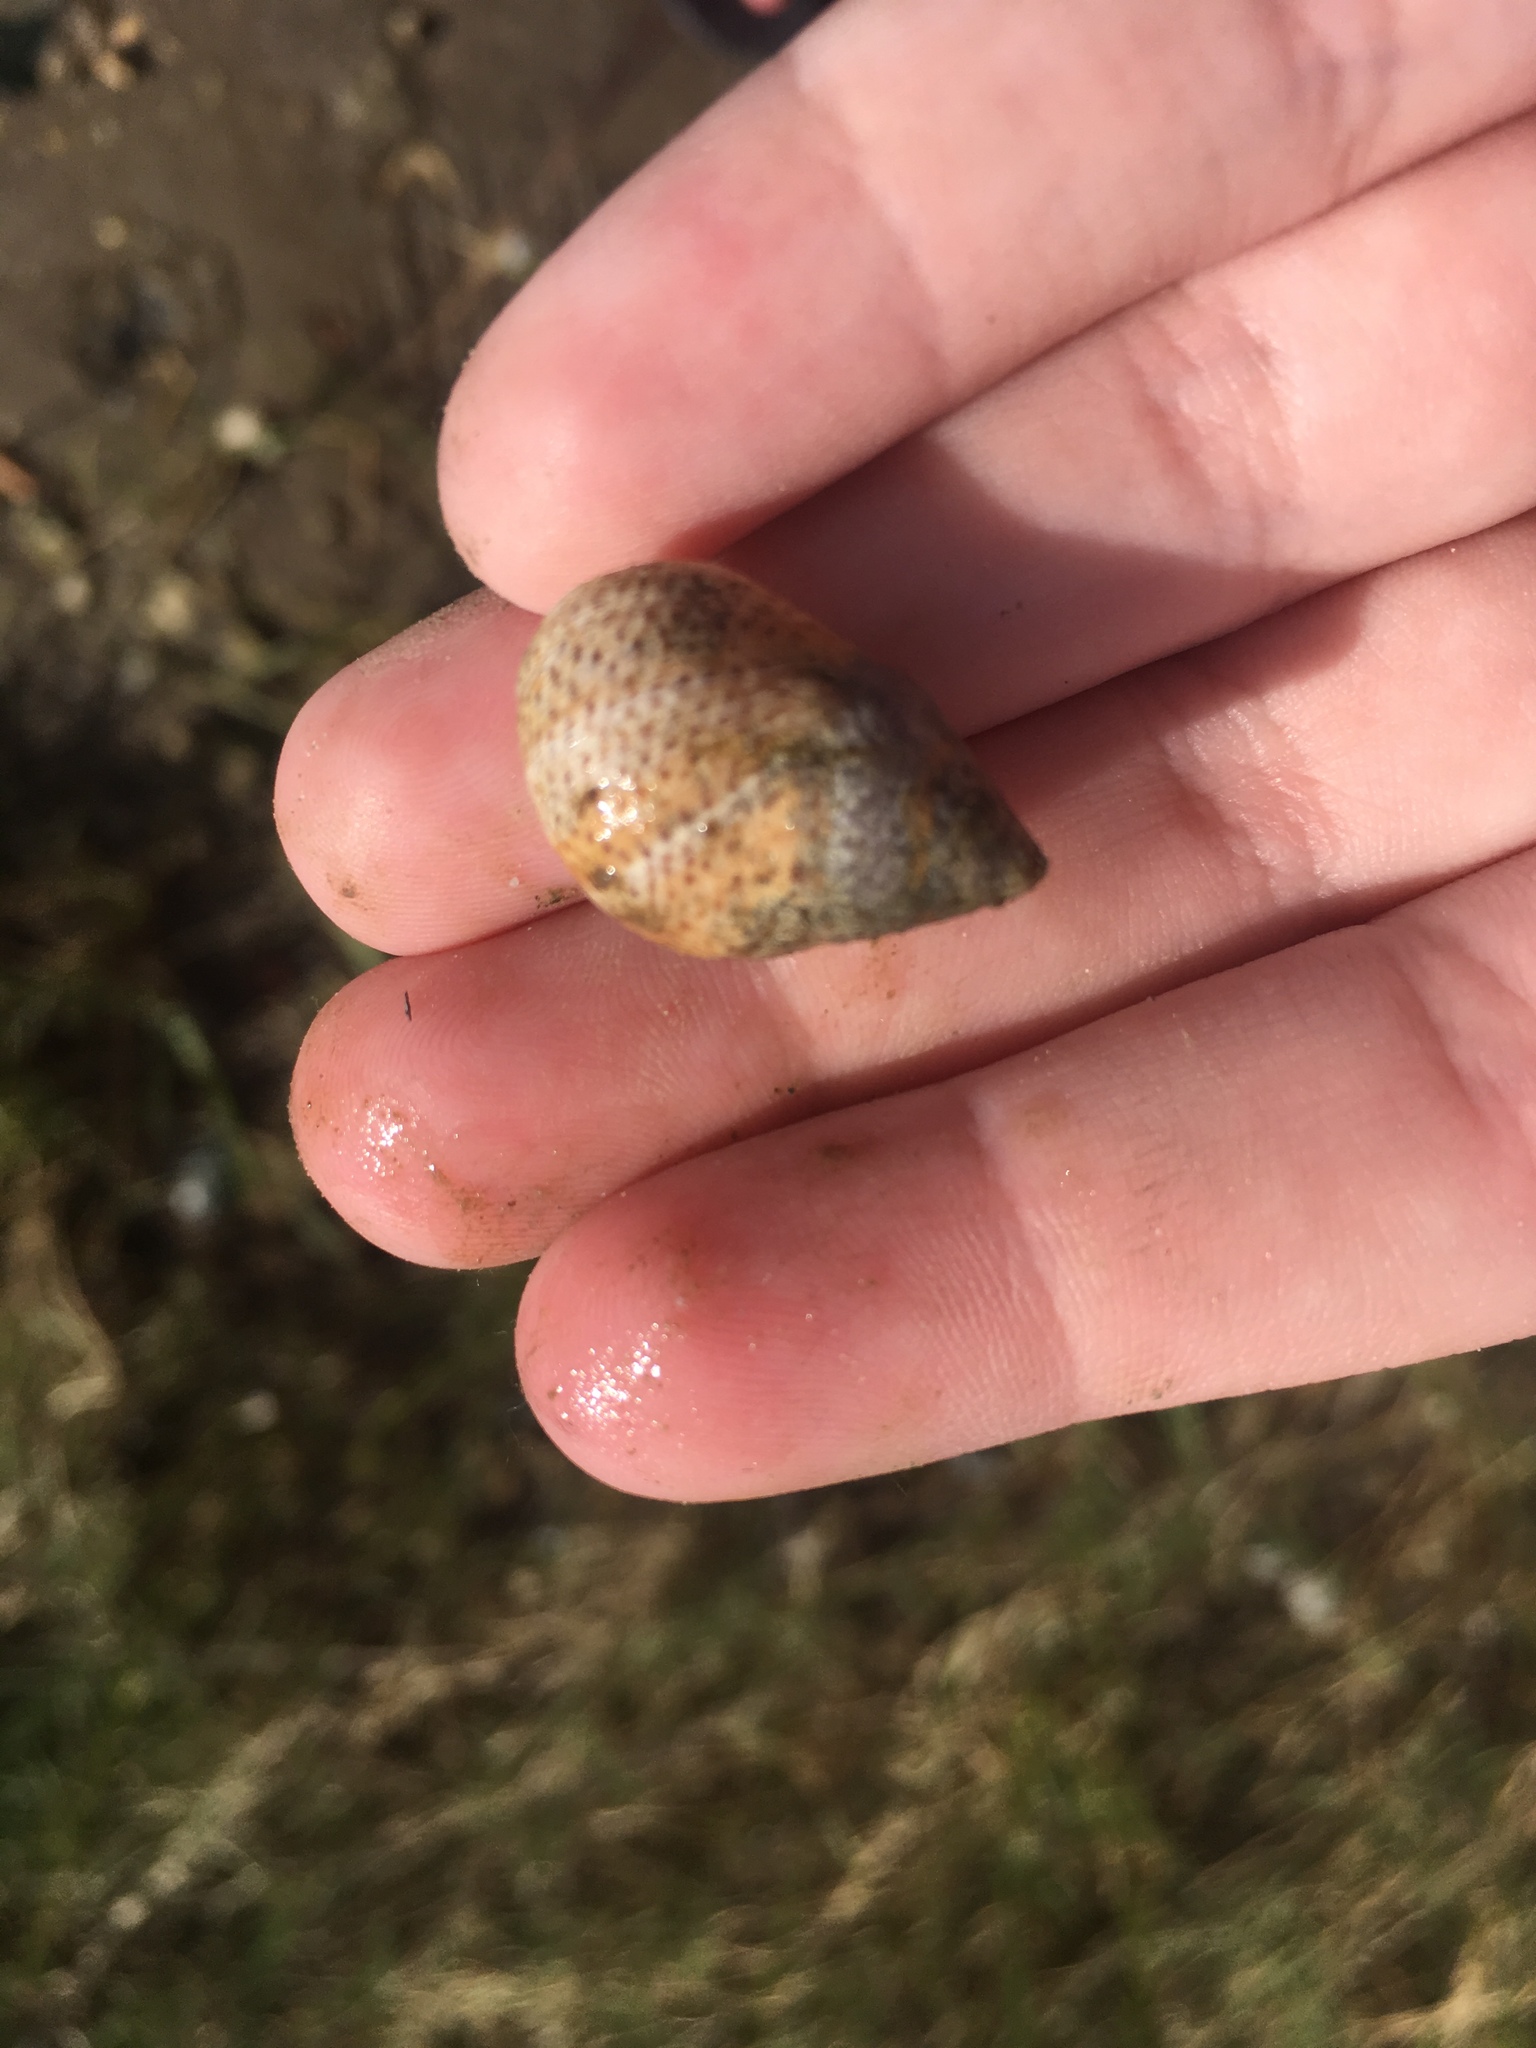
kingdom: Animalia
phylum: Mollusca
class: Gastropoda
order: Littorinimorpha
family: Littorinidae
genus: Littoraria
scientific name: Littoraria irrorata
